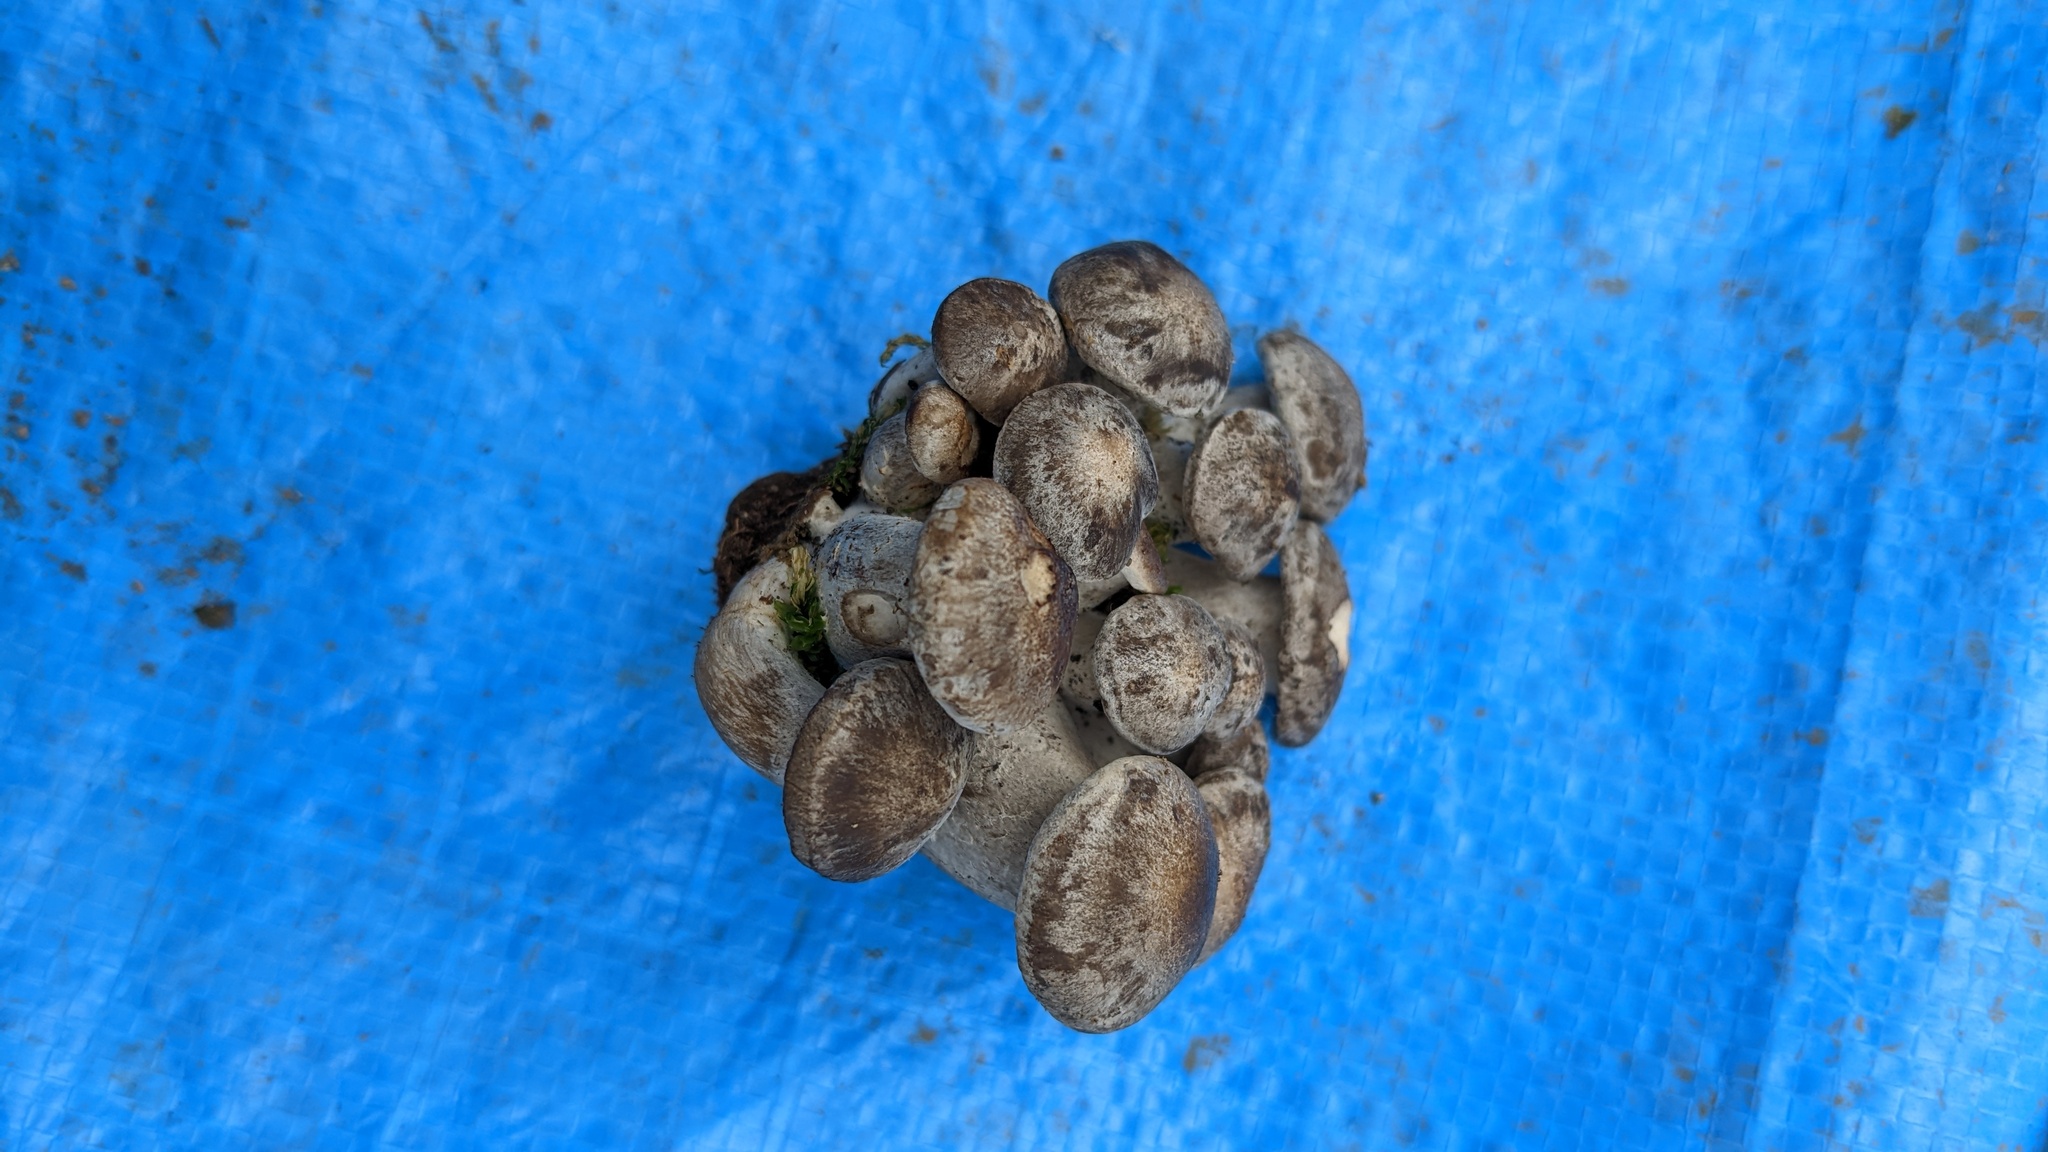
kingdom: Fungi
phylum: Basidiomycota
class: Agaricomycetes
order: Agaricales
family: Lyophyllaceae
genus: Lyophyllum
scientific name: Lyophyllum decastes
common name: Clustered domecap
